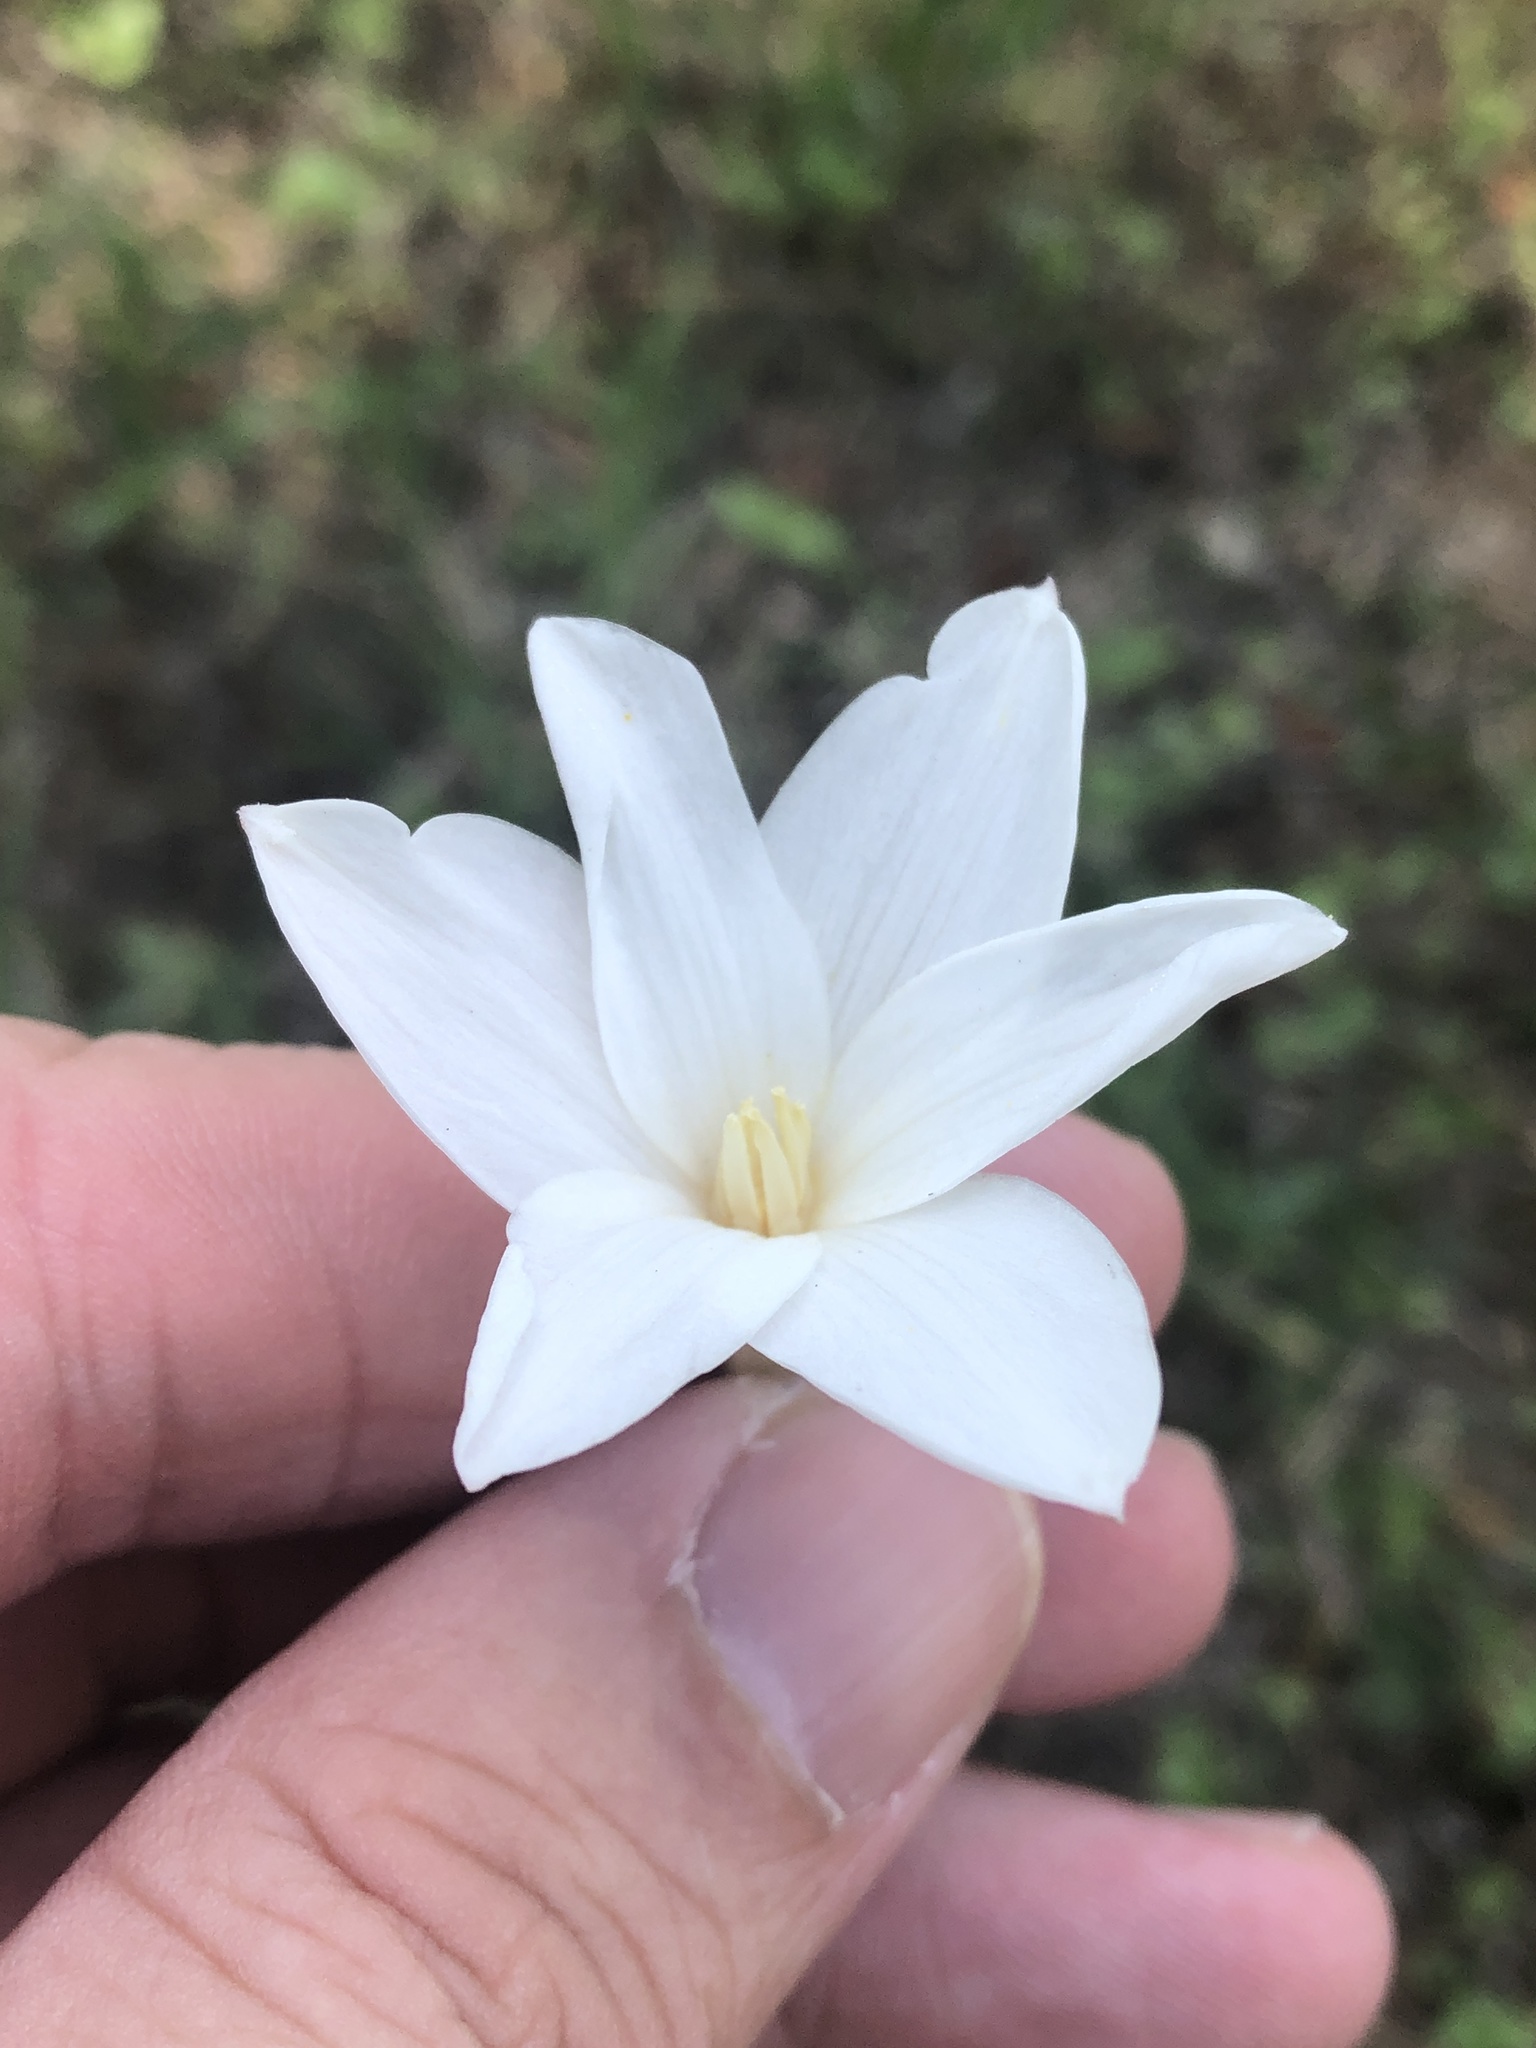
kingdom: Plantae
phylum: Tracheophyta
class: Liliopsida
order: Asparagales
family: Amaryllidaceae
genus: Zephyranthes
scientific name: Zephyranthes chlorosolen
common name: Evening rain-lily
